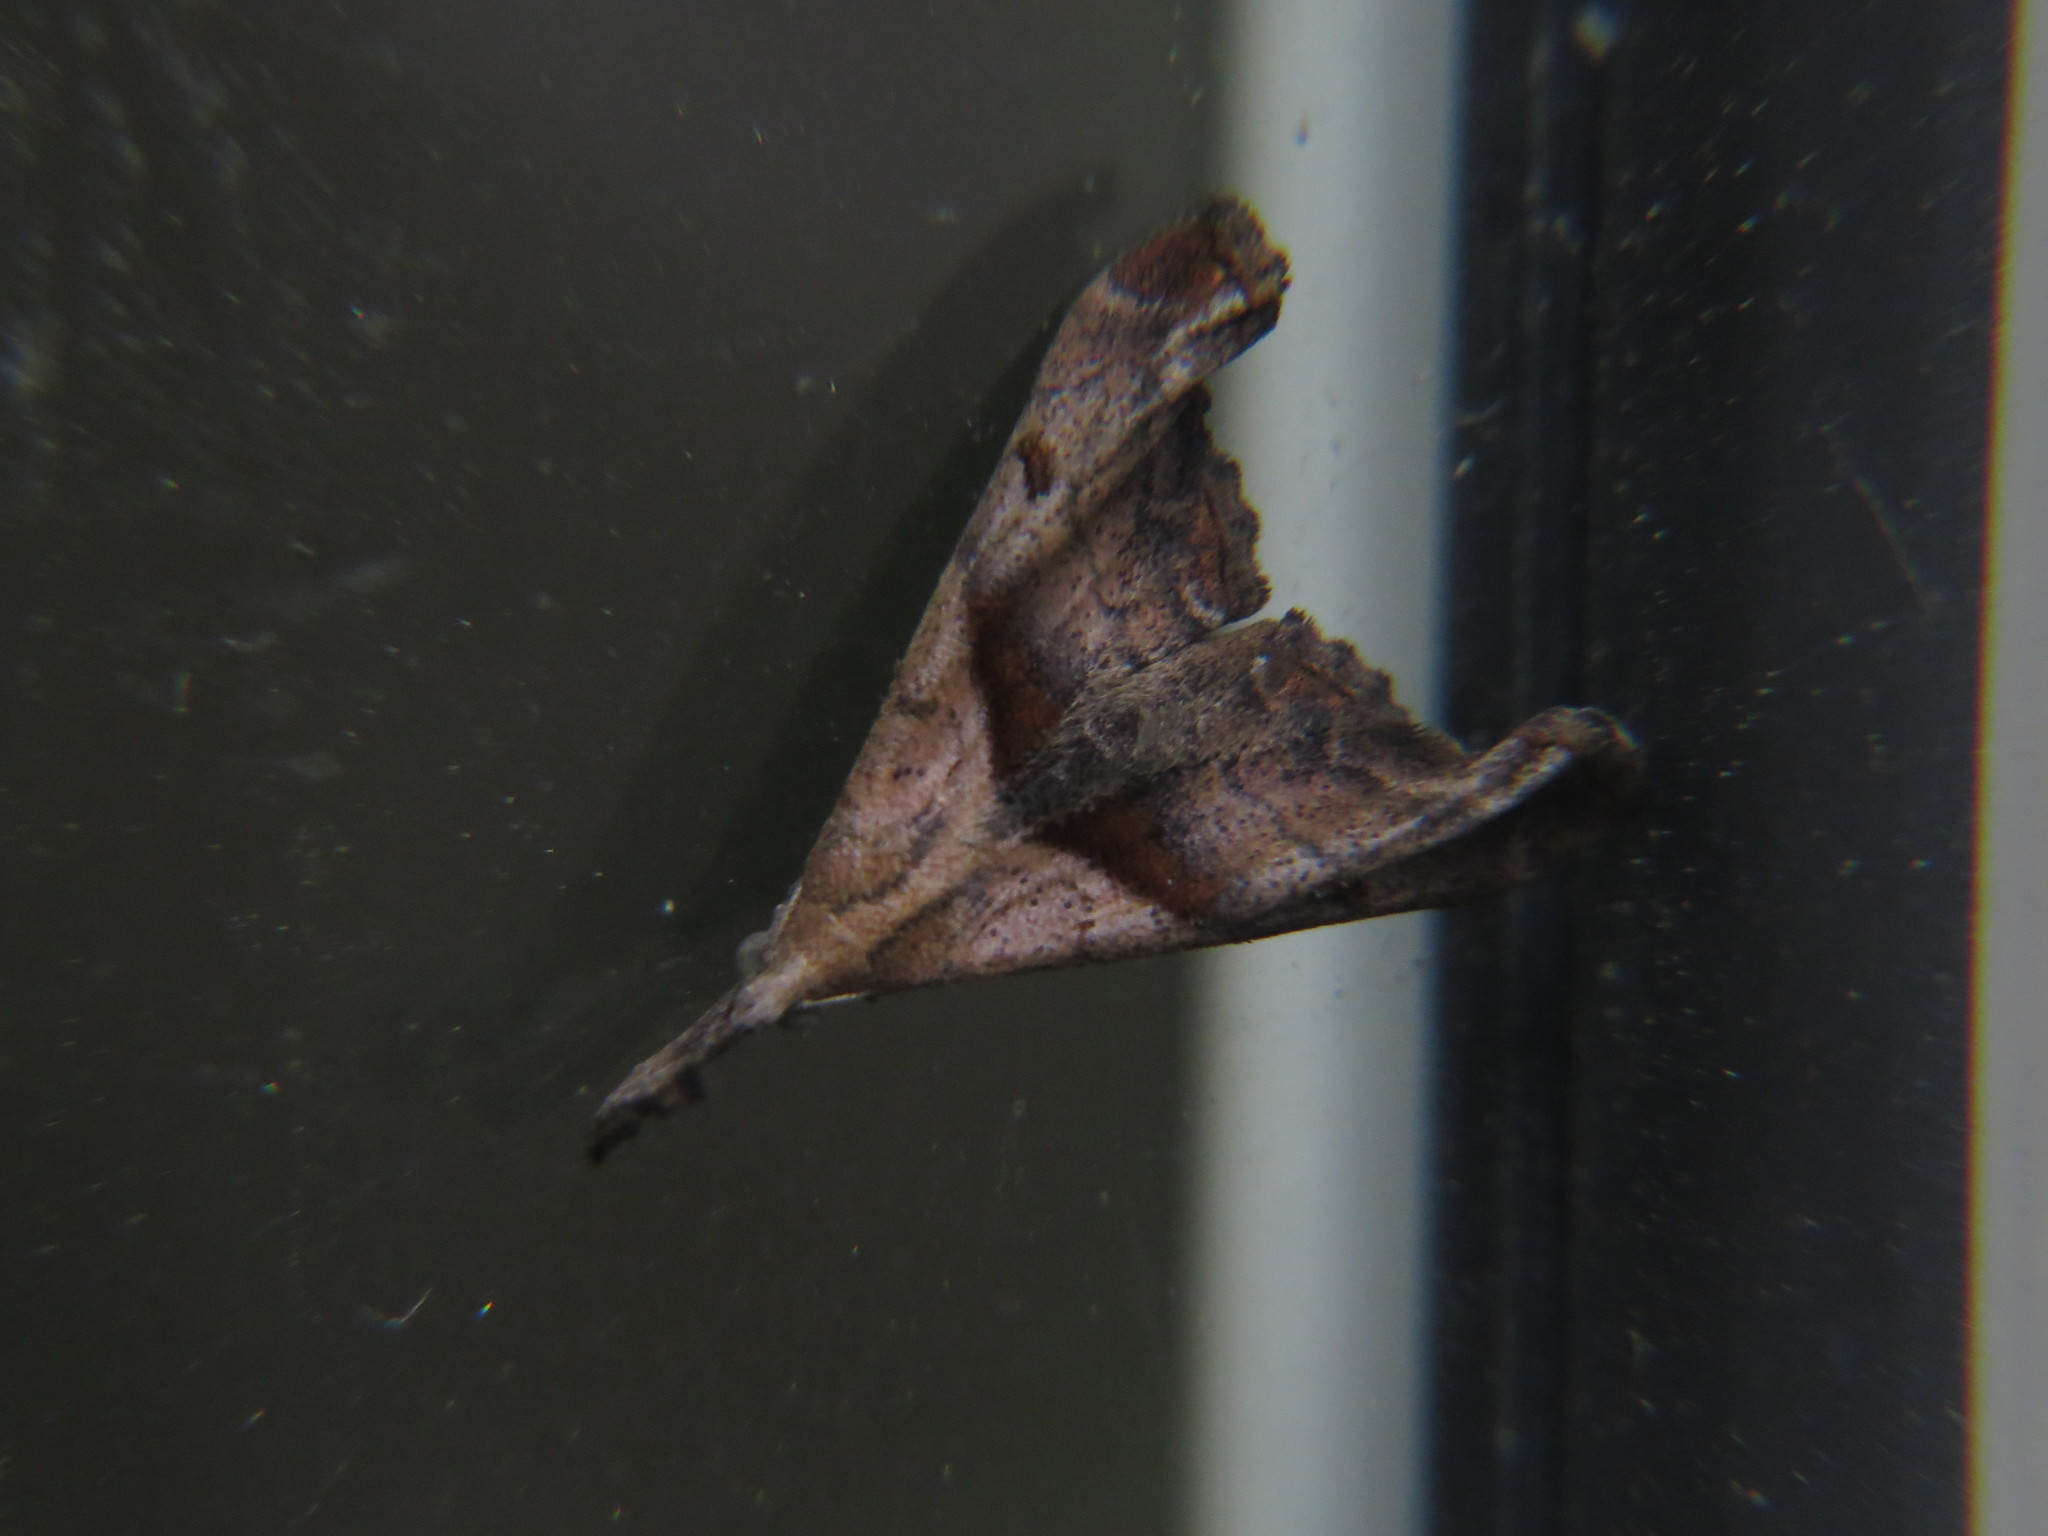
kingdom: Animalia
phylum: Arthropoda
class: Insecta
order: Lepidoptera
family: Erebidae
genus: Palthis
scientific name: Palthis angulalis
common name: Dark-spotted palthis moth
